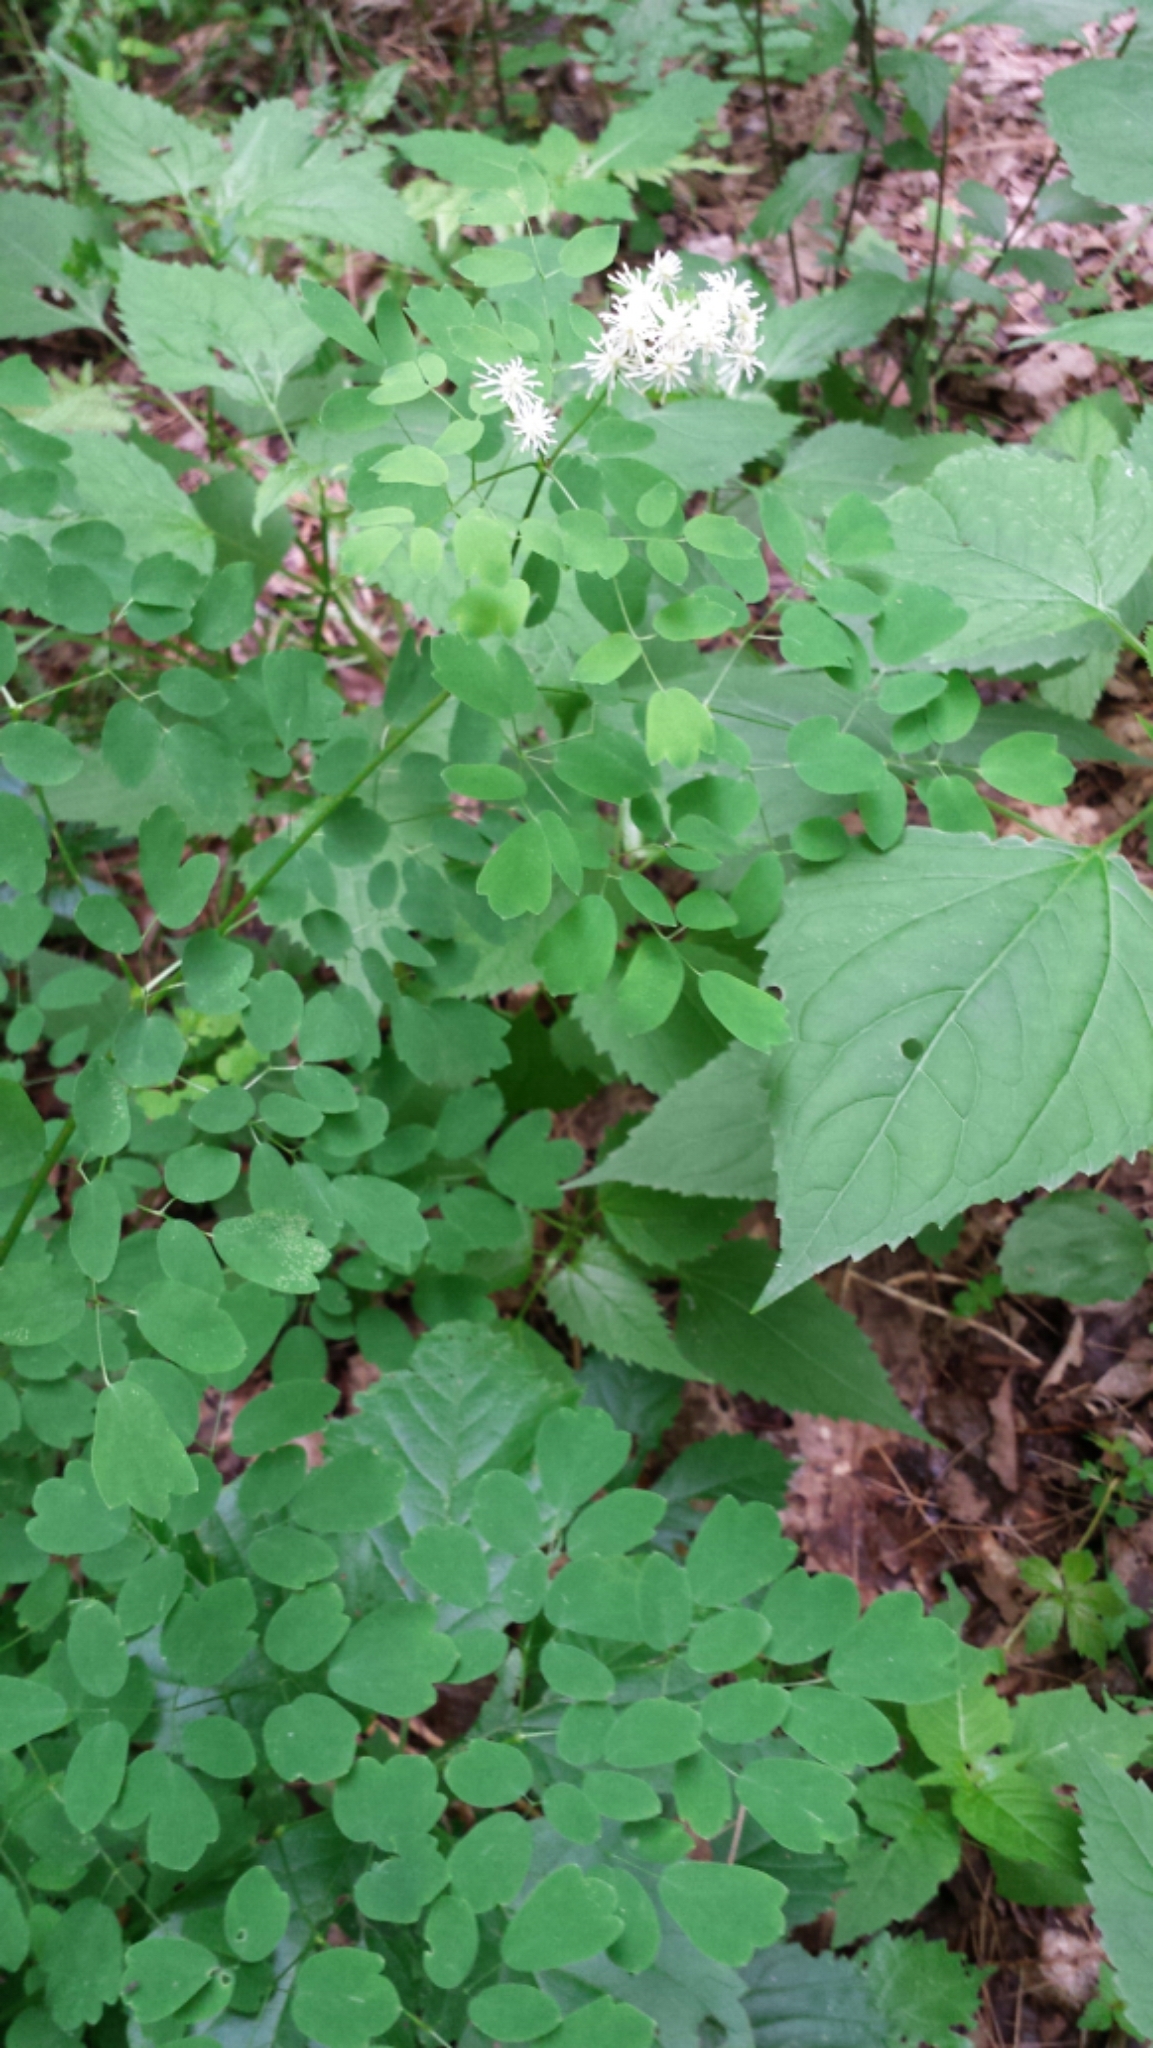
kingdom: Plantae
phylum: Tracheophyta
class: Magnoliopsida
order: Ranunculales
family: Ranunculaceae
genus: Thalictrum
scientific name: Thalictrum pubescens
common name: King-of-the-meadow
